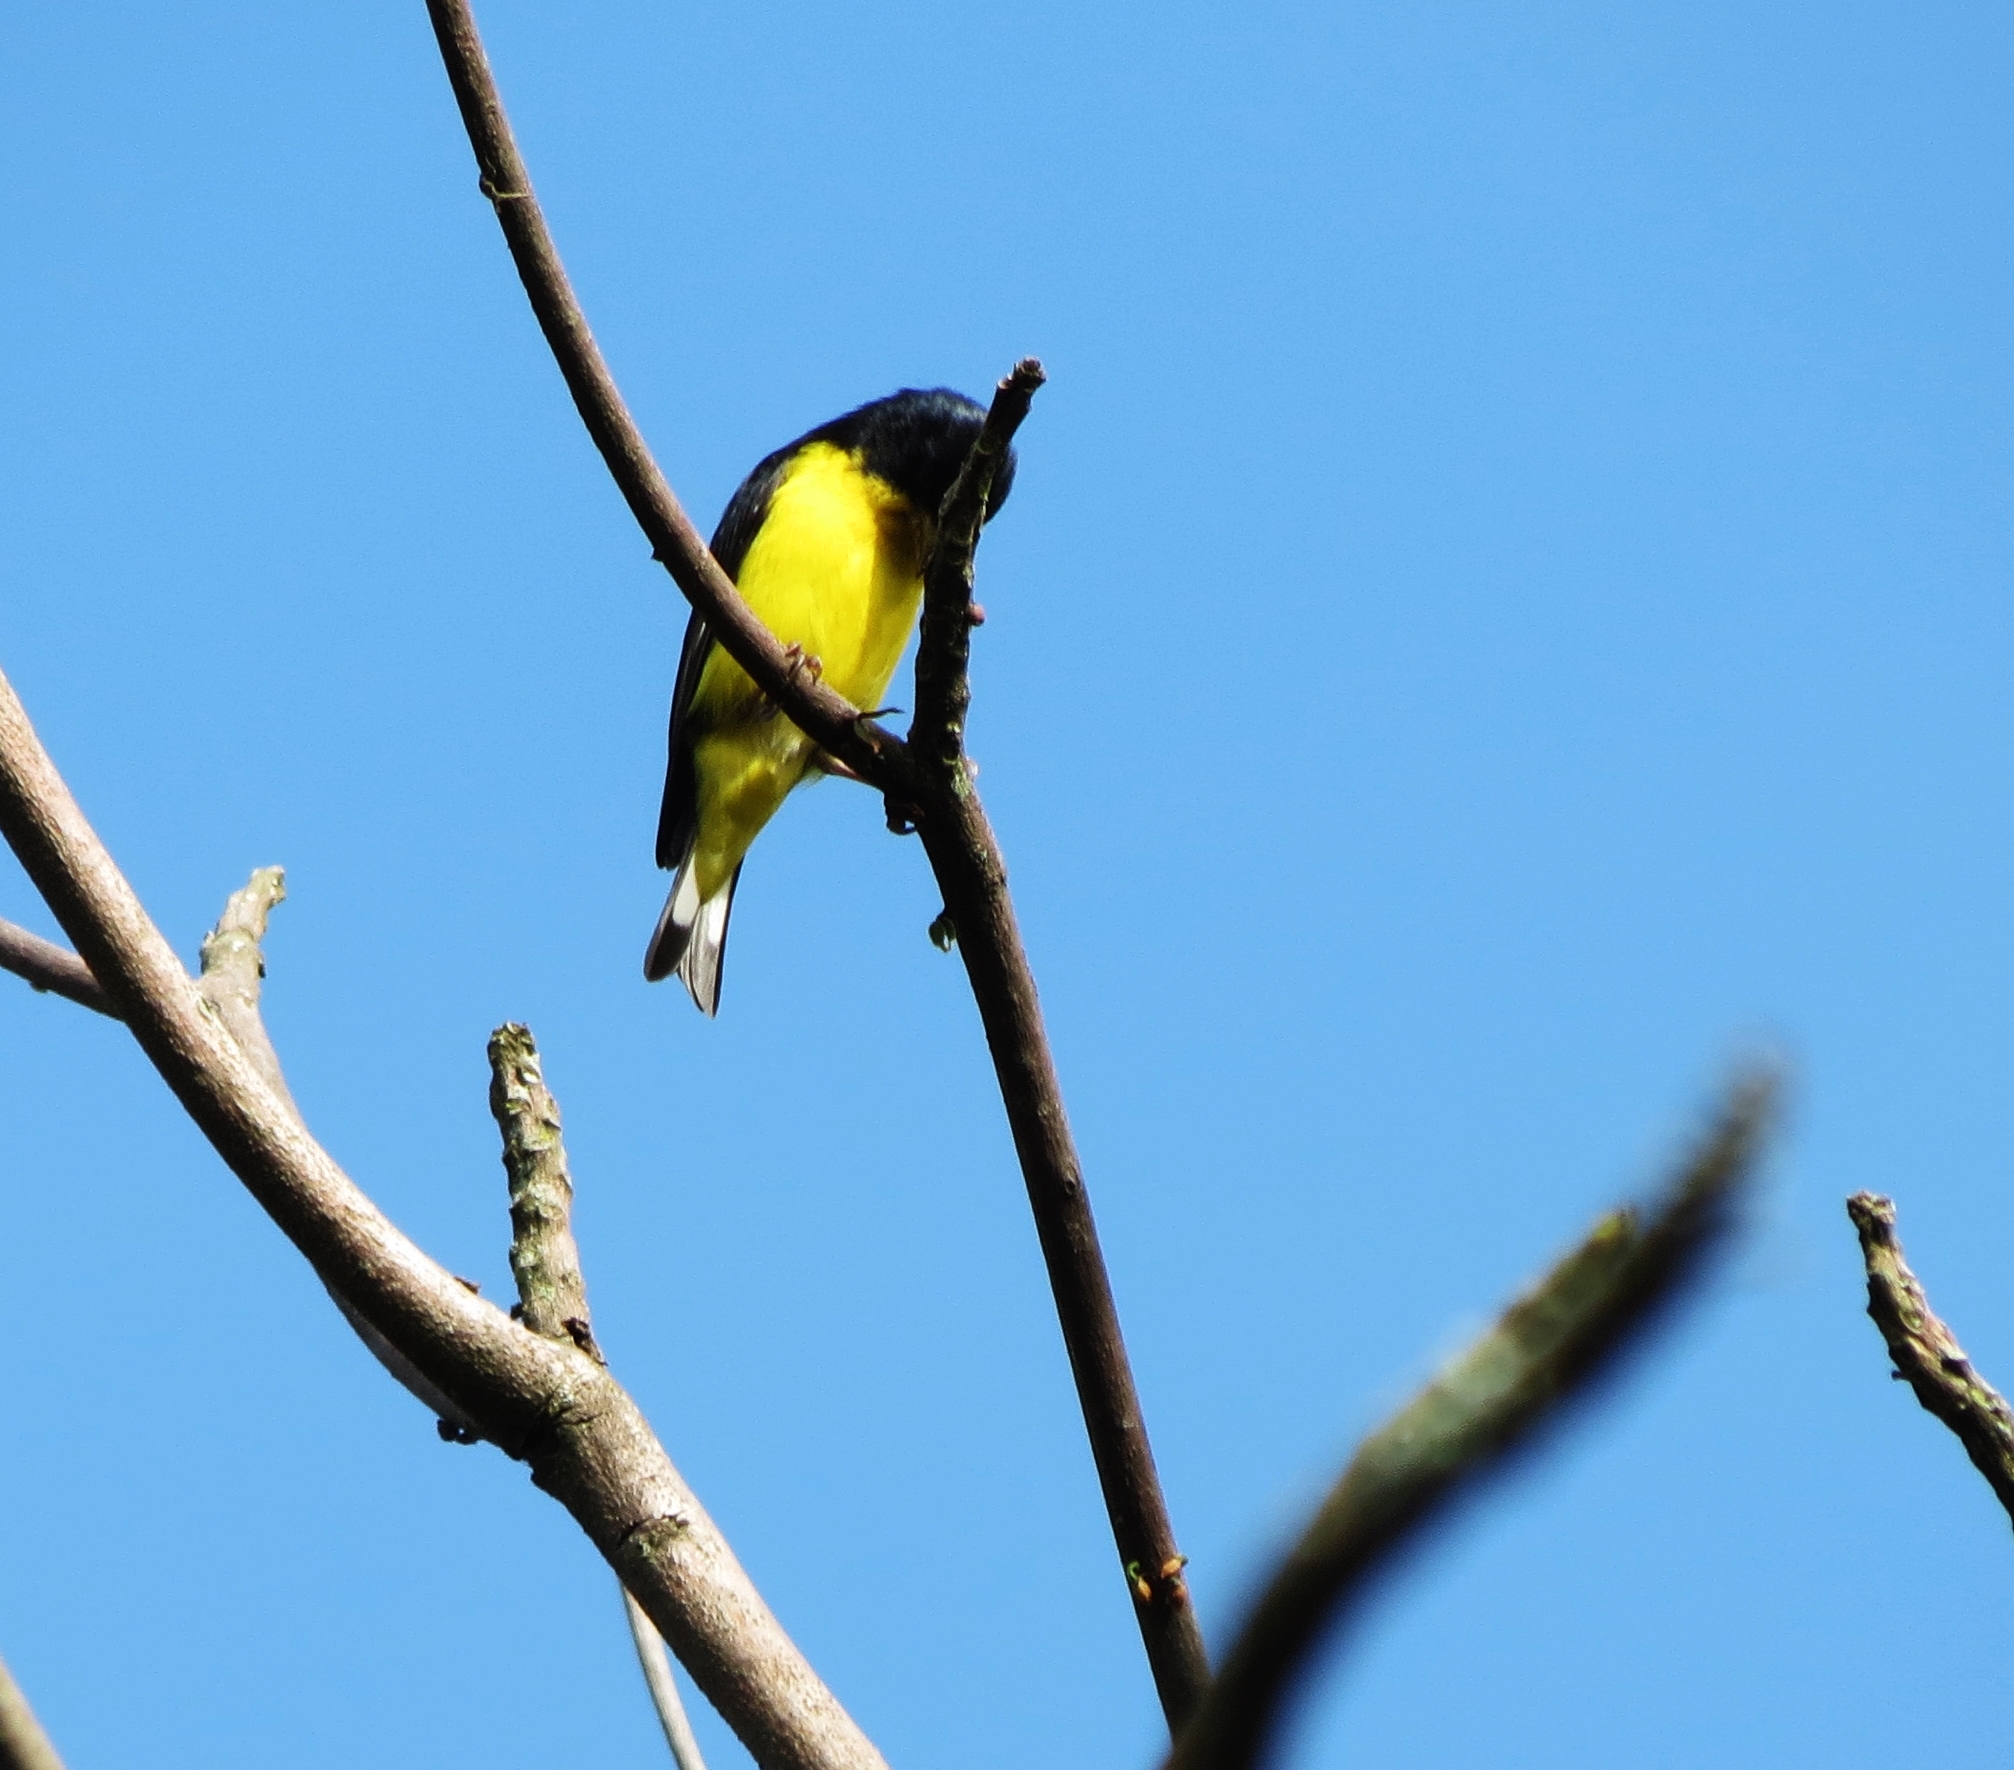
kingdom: Animalia
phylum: Chordata
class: Aves
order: Passeriformes
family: Fringillidae
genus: Spinus
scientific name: Spinus psaltria
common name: Lesser goldfinch
